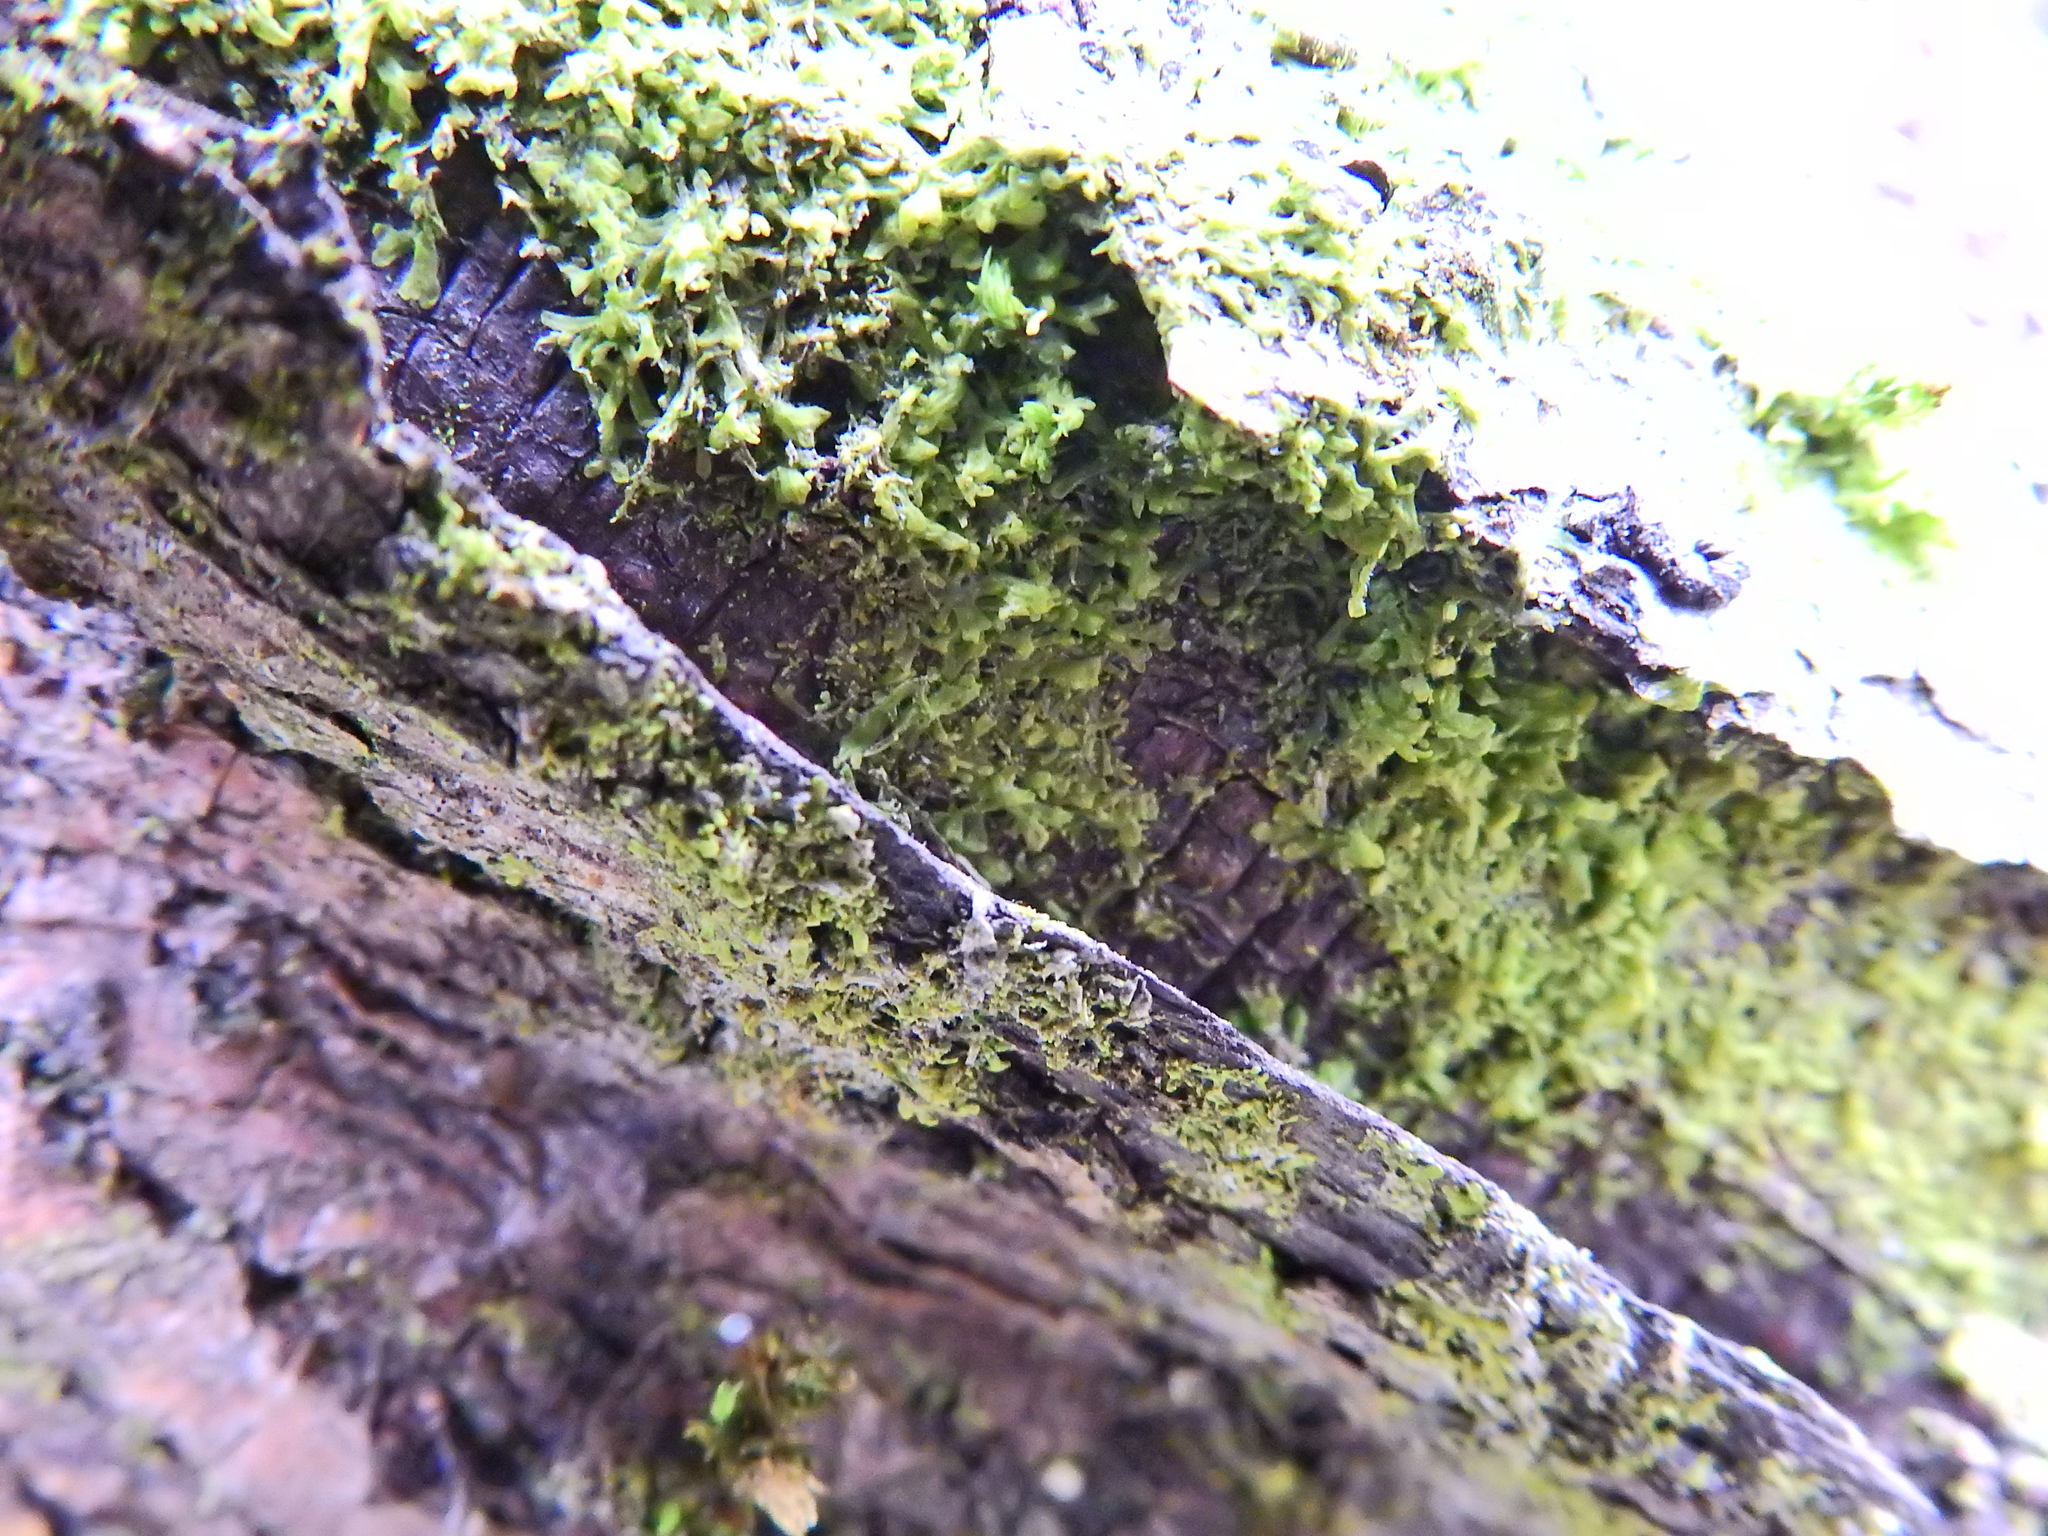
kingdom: Plantae
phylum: Marchantiophyta
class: Jungermanniopsida
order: Metzgeriales
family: Metzgeriaceae
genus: Metzgeria
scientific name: Metzgeria furcata
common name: Forked veilwort
